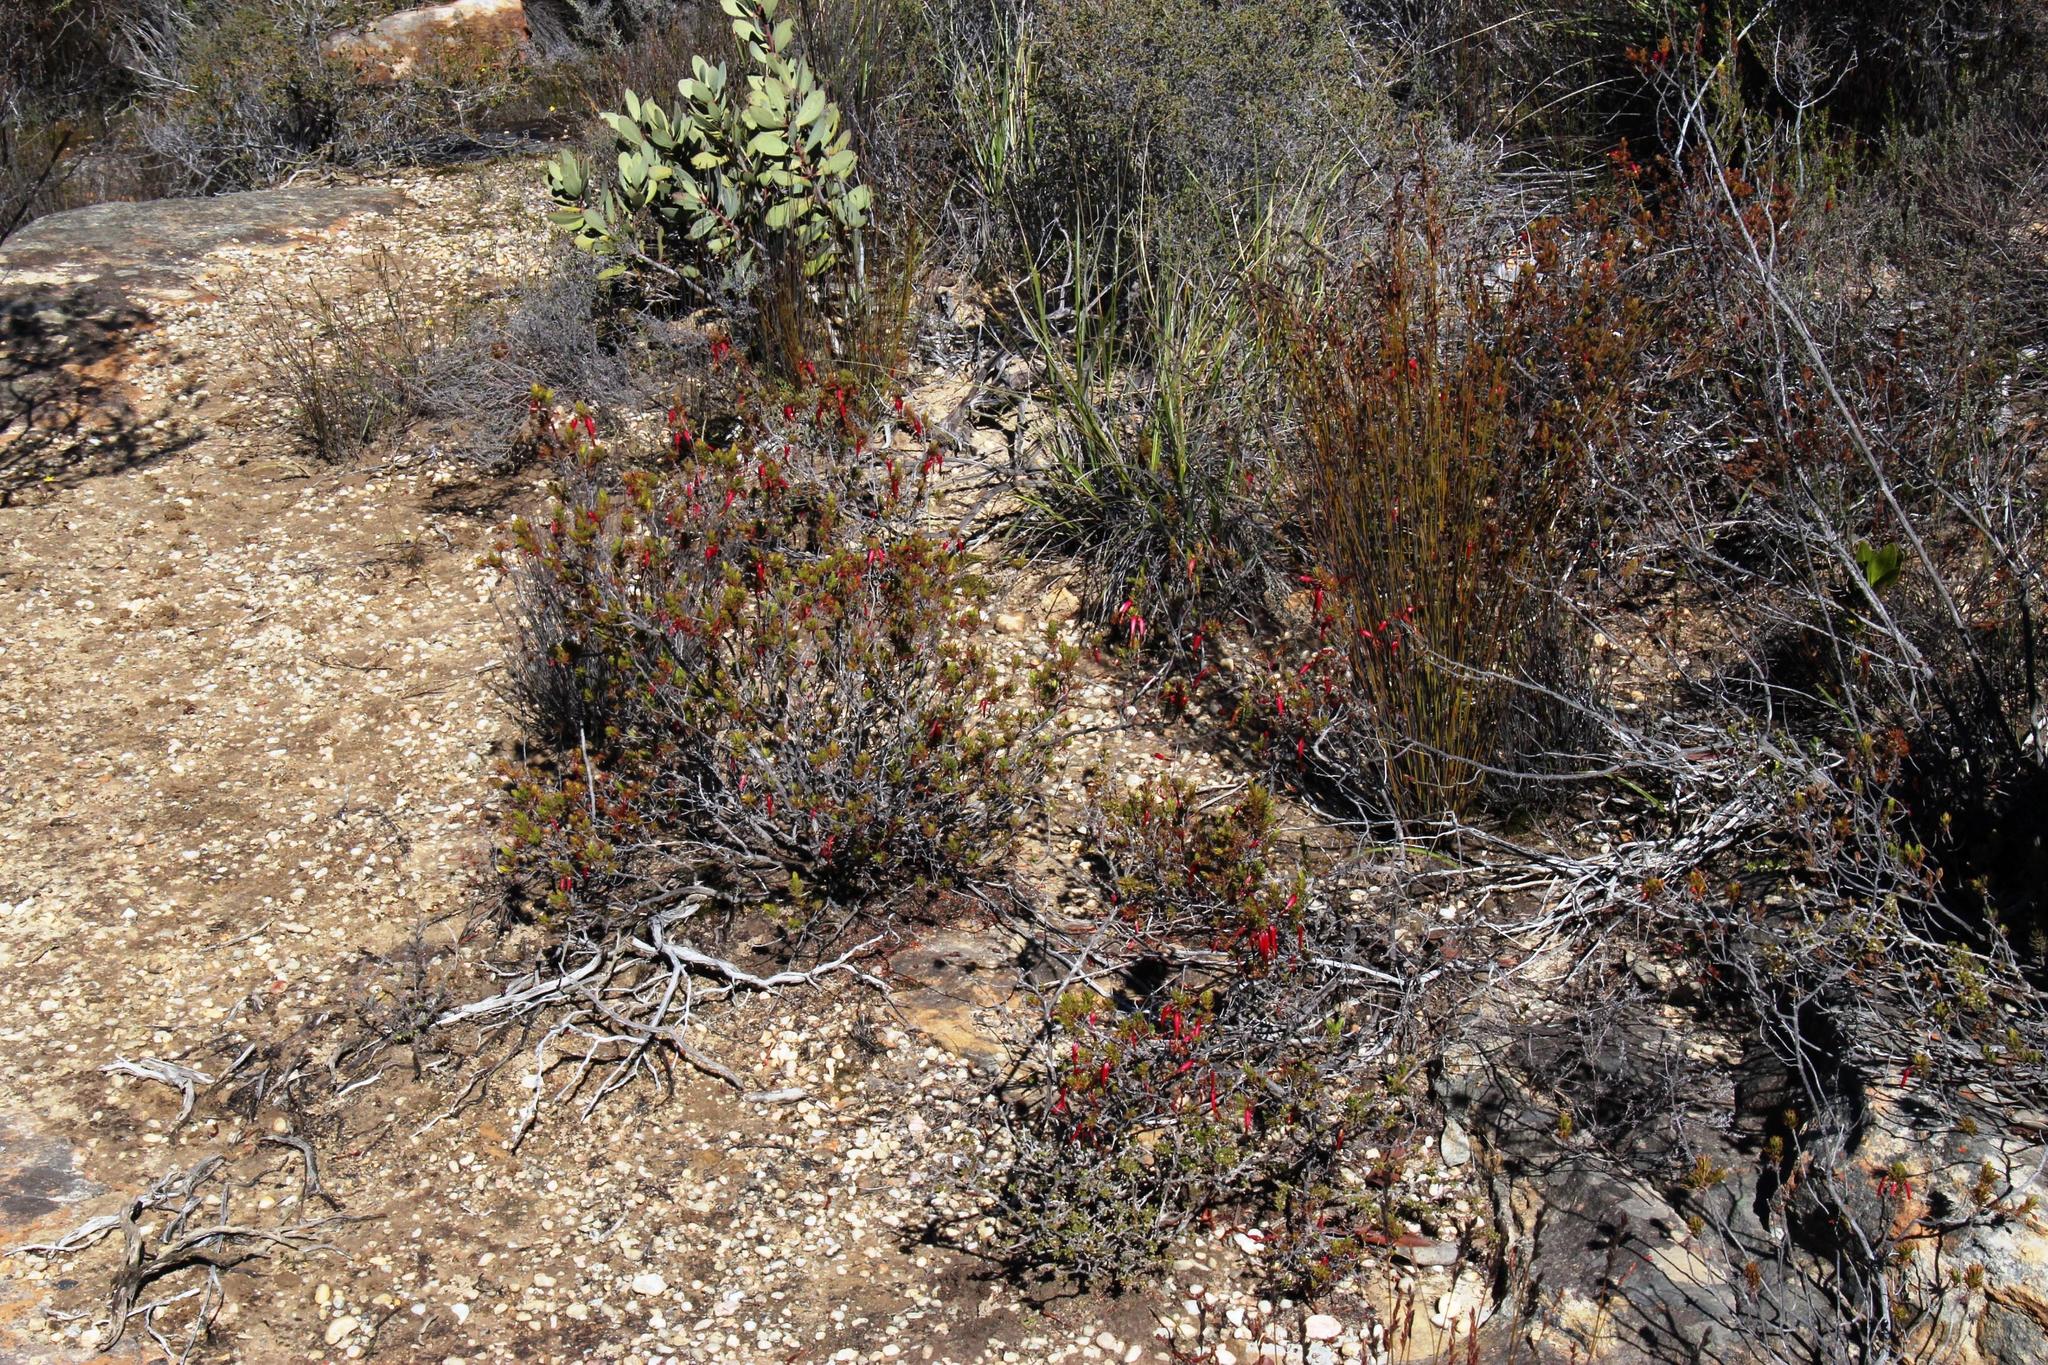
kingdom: Plantae
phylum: Tracheophyta
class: Magnoliopsida
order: Ericales
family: Ericaceae
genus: Erica
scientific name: Erica plukenetii
